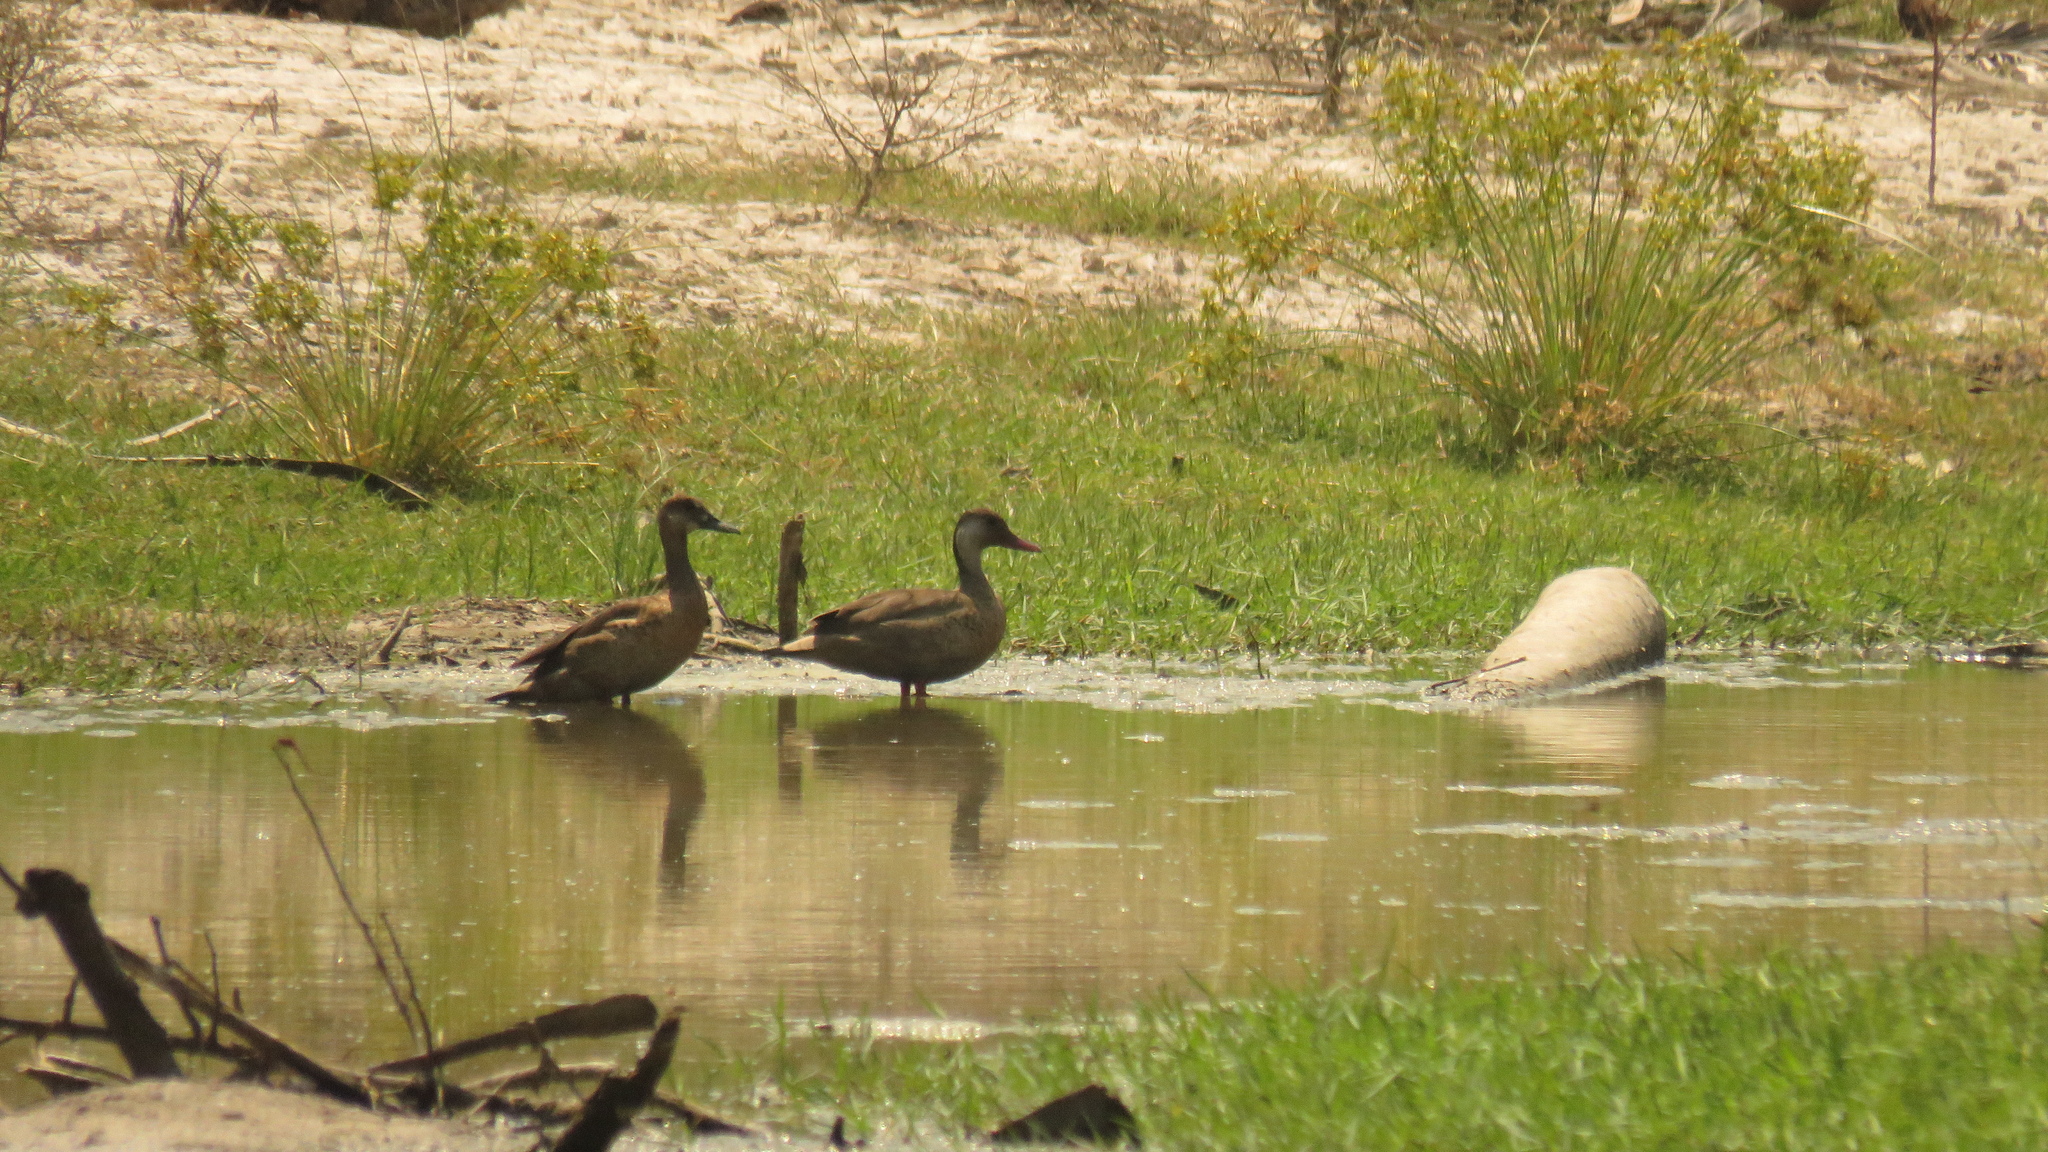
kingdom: Animalia
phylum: Chordata
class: Aves
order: Anseriformes
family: Anatidae
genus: Amazonetta
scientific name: Amazonetta brasiliensis
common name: Brazilian teal
